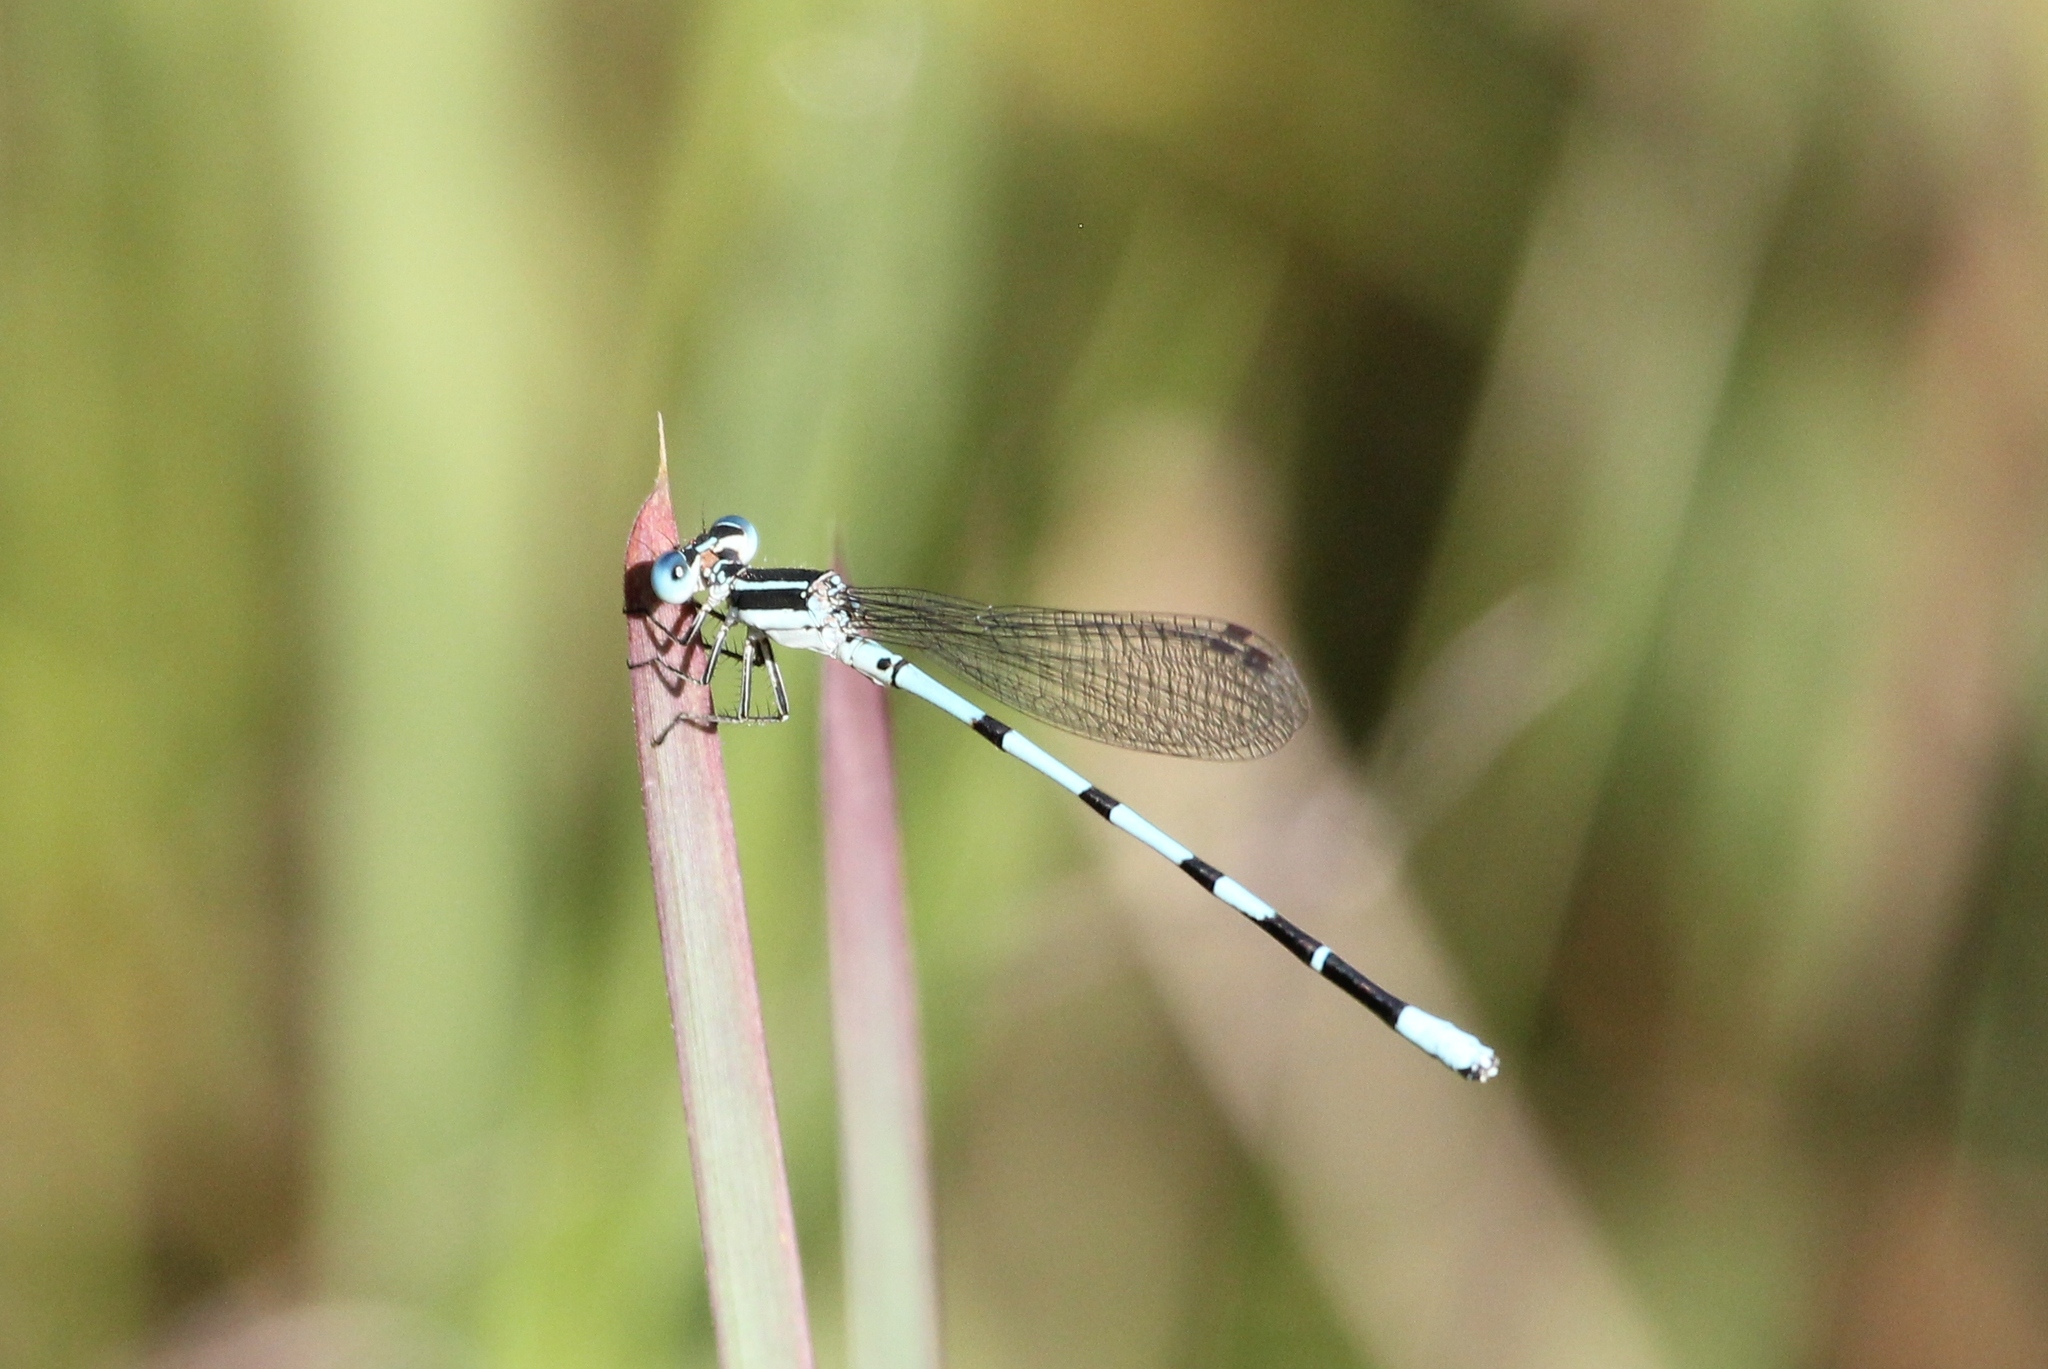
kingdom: Animalia
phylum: Arthropoda
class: Insecta
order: Odonata
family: Coenagrionidae
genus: Argia
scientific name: Argia bipunctulata
